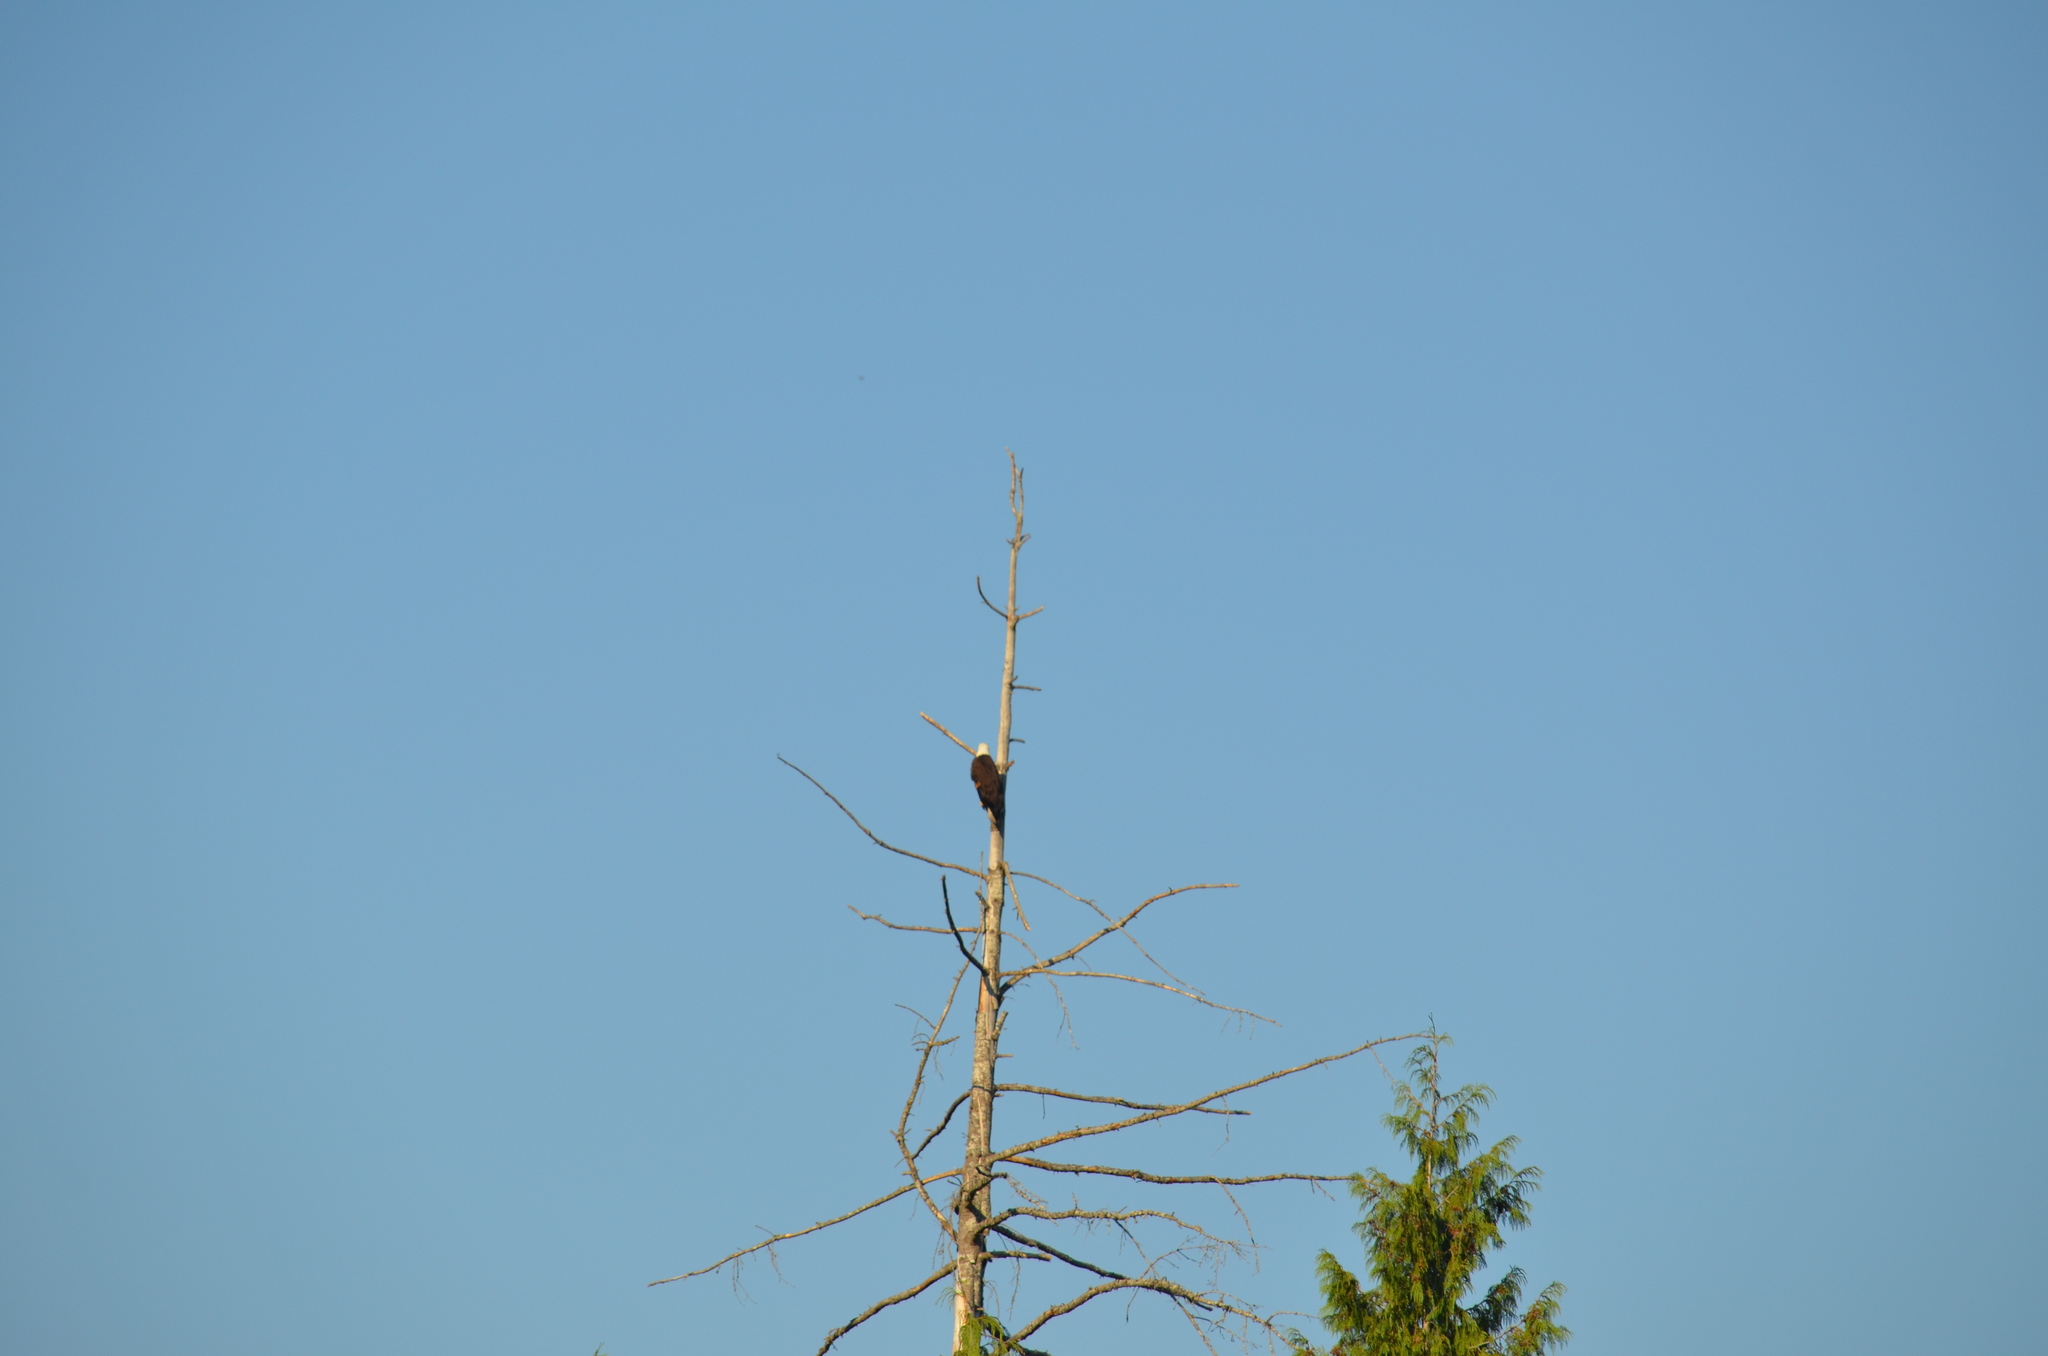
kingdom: Animalia
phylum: Chordata
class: Aves
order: Accipitriformes
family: Accipitridae
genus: Haliaeetus
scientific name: Haliaeetus leucocephalus
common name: Bald eagle
